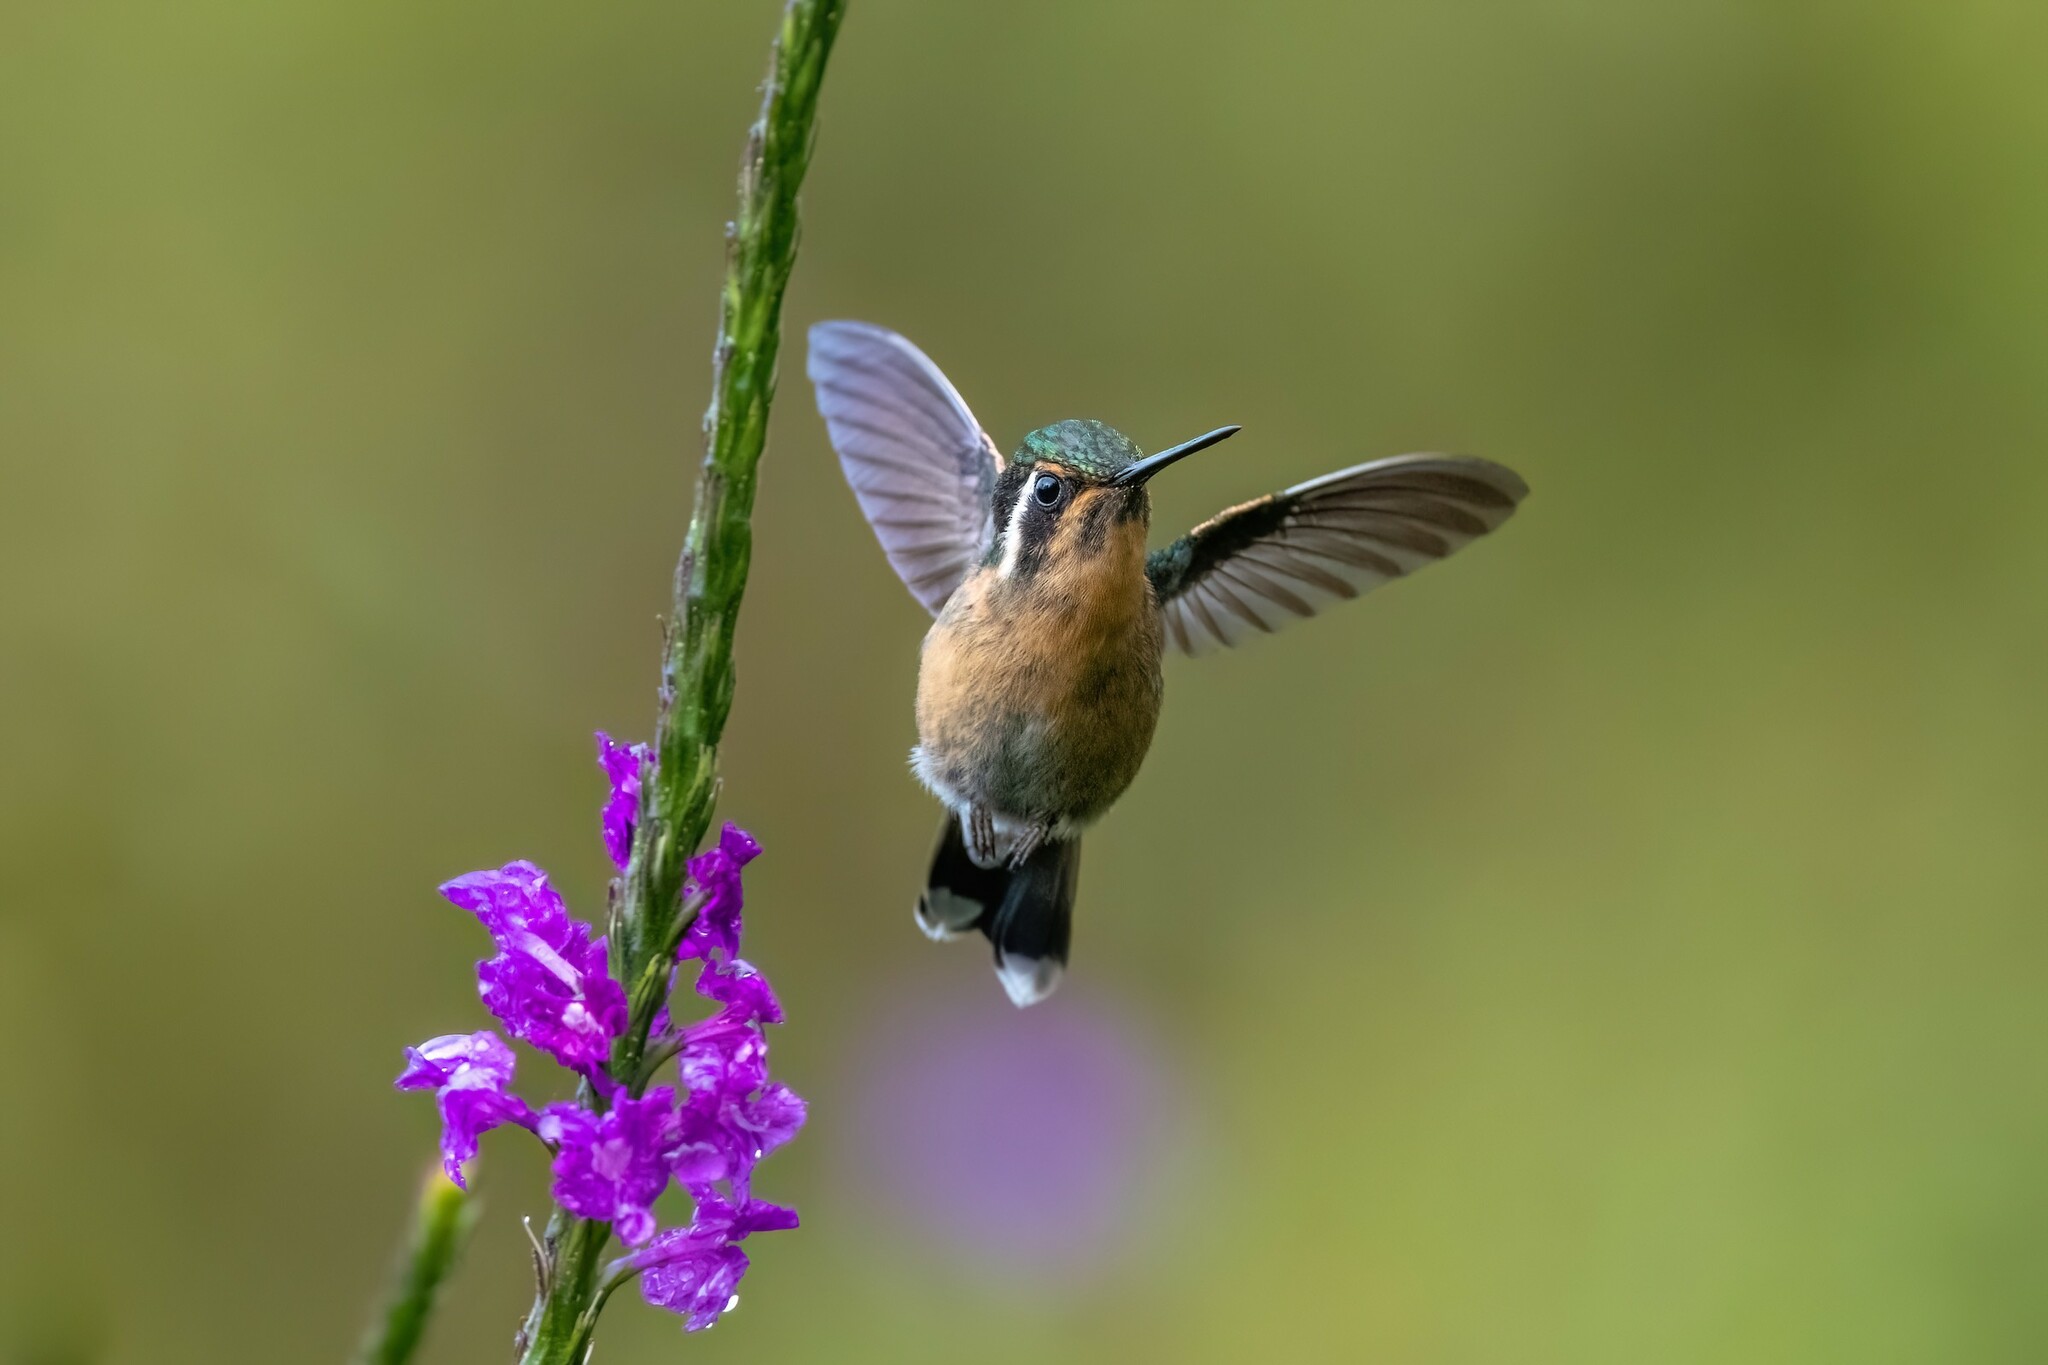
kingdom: Animalia
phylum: Chordata
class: Aves
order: Apodiformes
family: Trochilidae
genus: Lampornis
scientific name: Lampornis calolaemus
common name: Purple-throated mountain-gem
